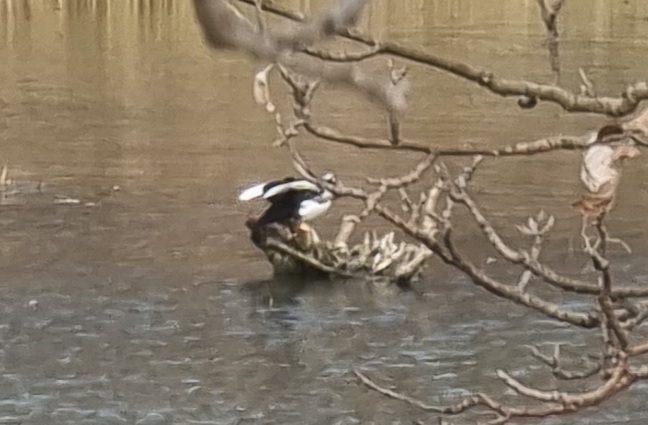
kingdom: Animalia
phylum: Chordata
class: Aves
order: Anseriformes
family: Anatidae
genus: Cairina
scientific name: Cairina moschata
